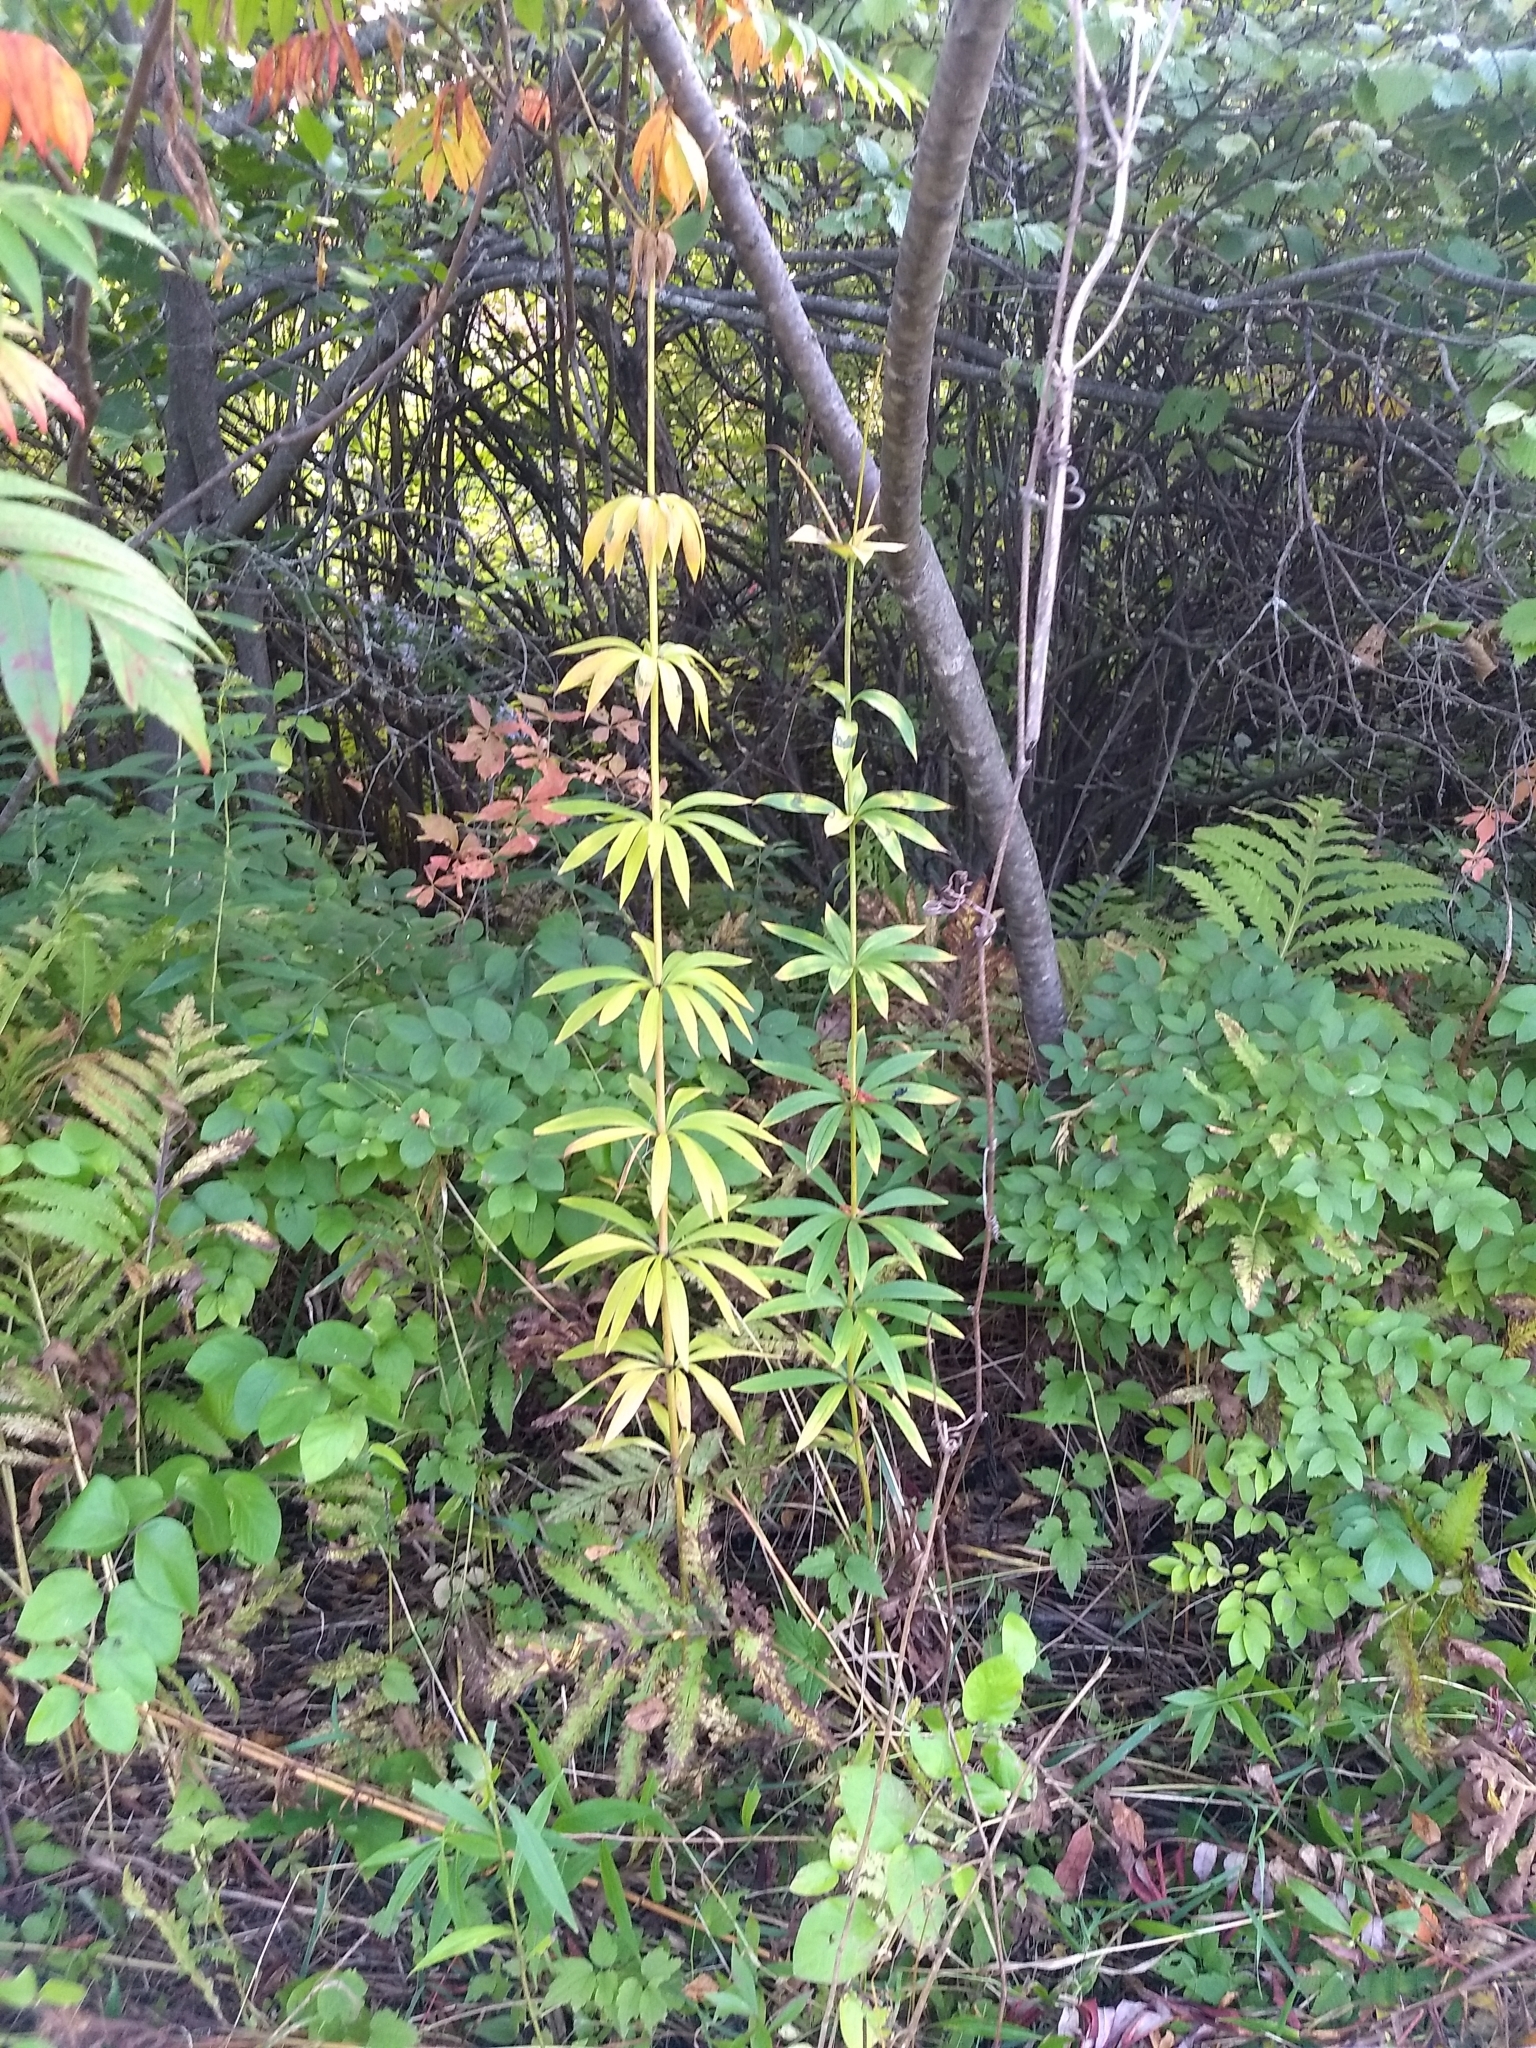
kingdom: Plantae
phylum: Tracheophyta
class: Liliopsida
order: Liliales
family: Liliaceae
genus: Lilium
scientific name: Lilium canadense
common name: Canada lily
